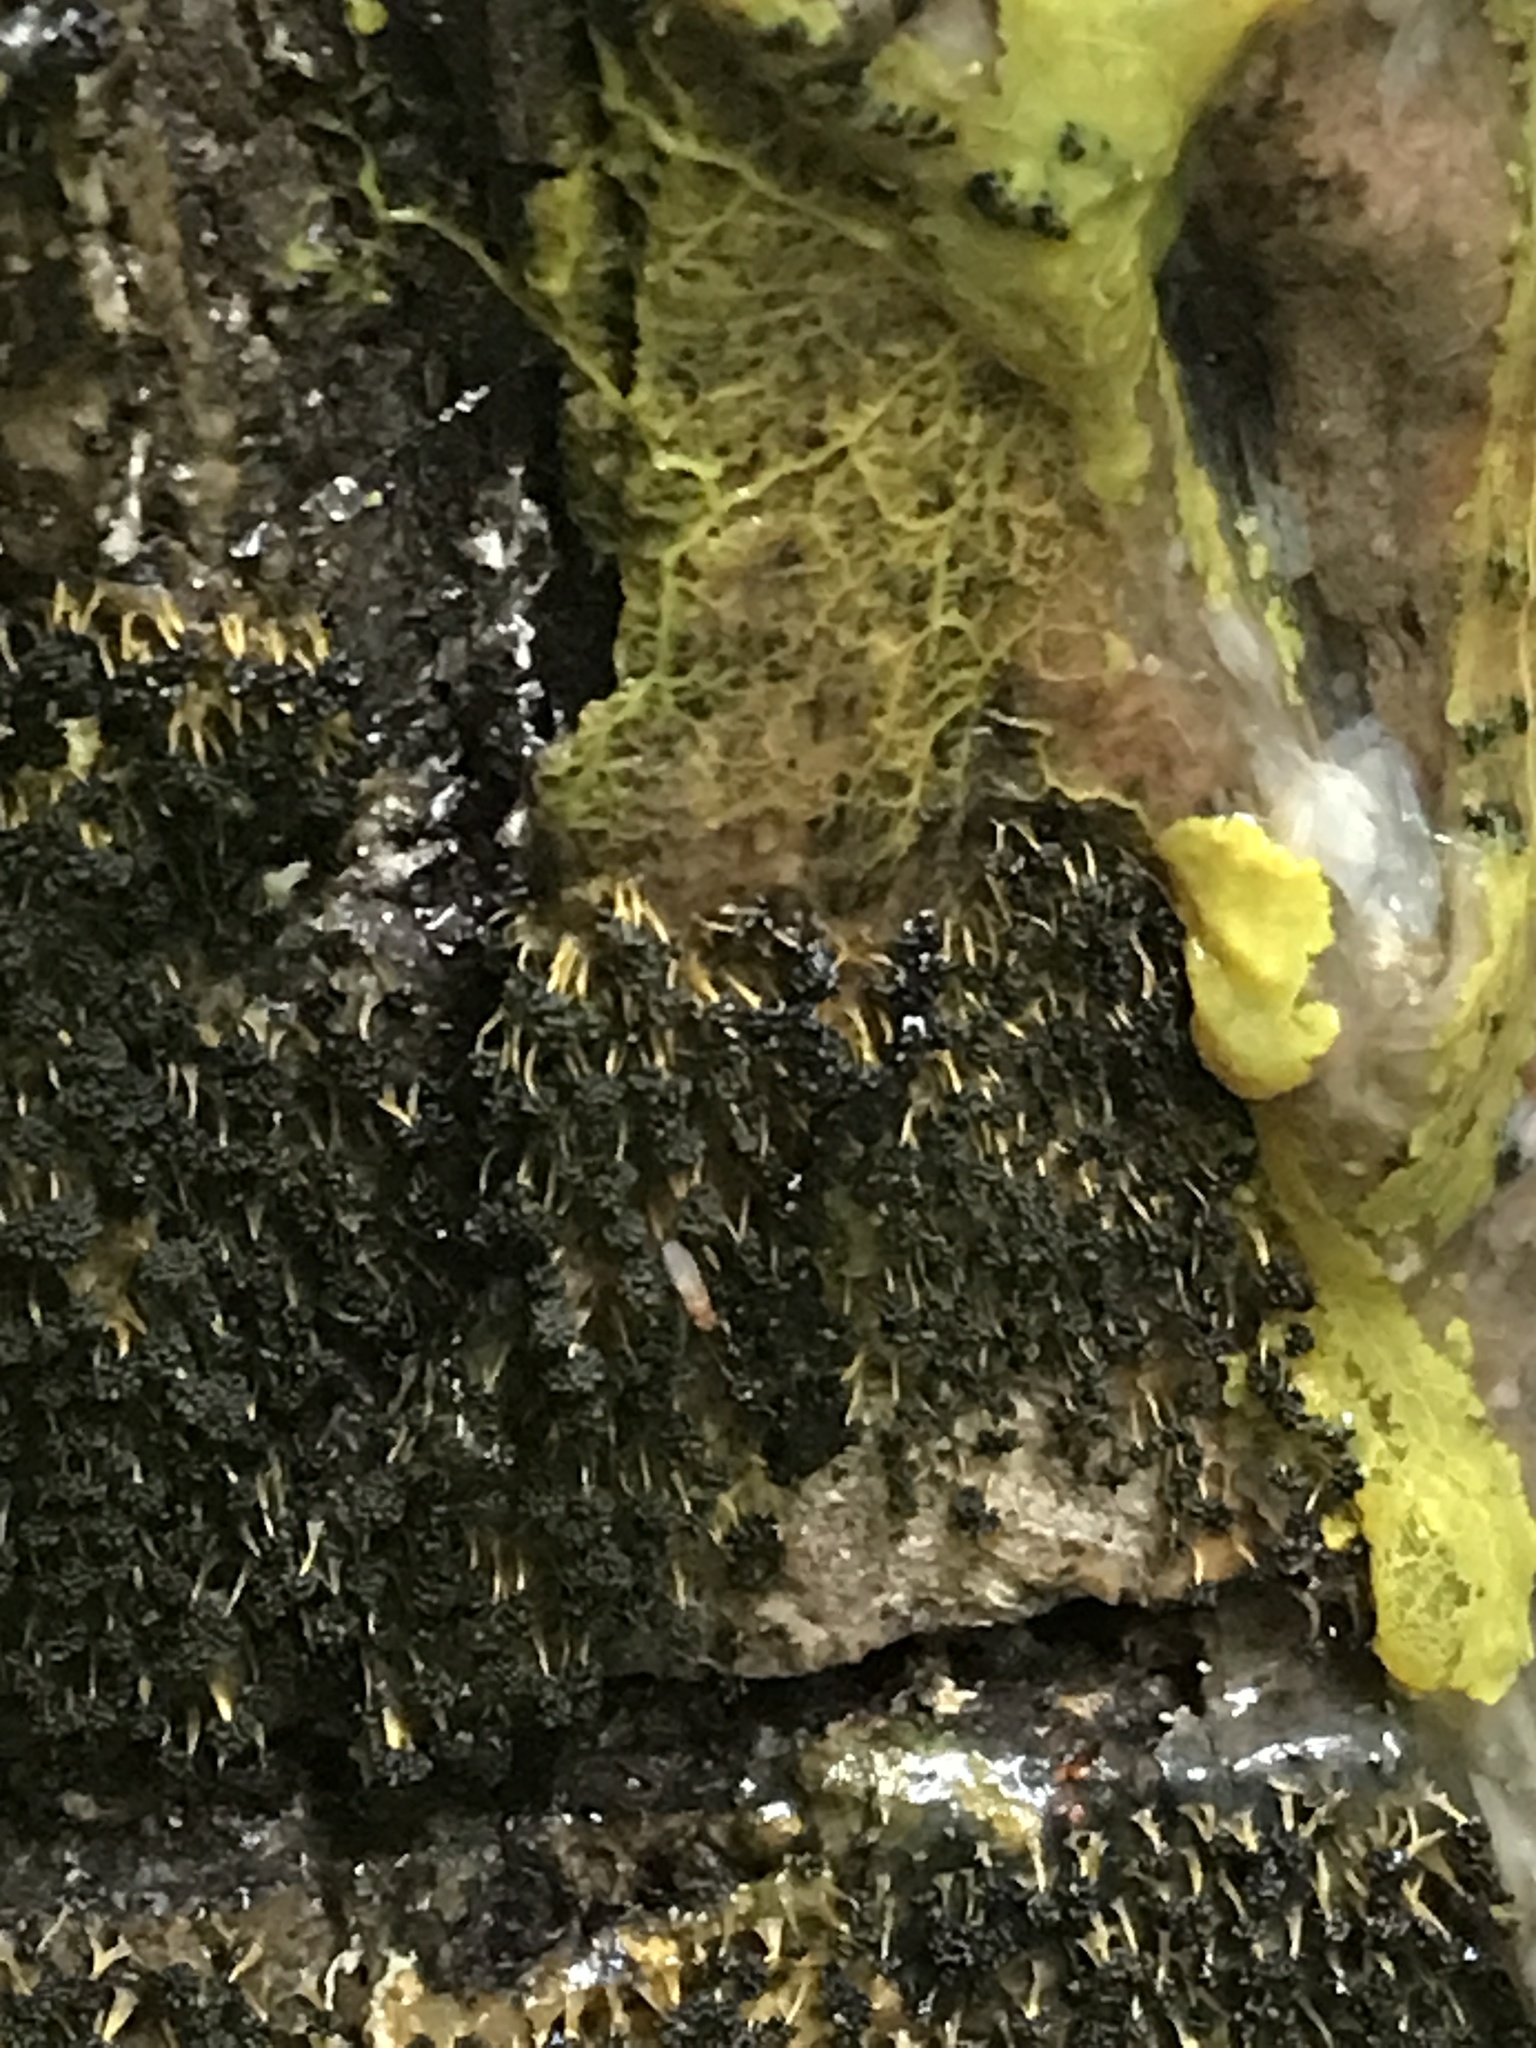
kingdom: Protozoa
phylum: Mycetozoa
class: Myxomycetes
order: Physarales
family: Physaraceae
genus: Physarum
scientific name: Physarum polycephalum
